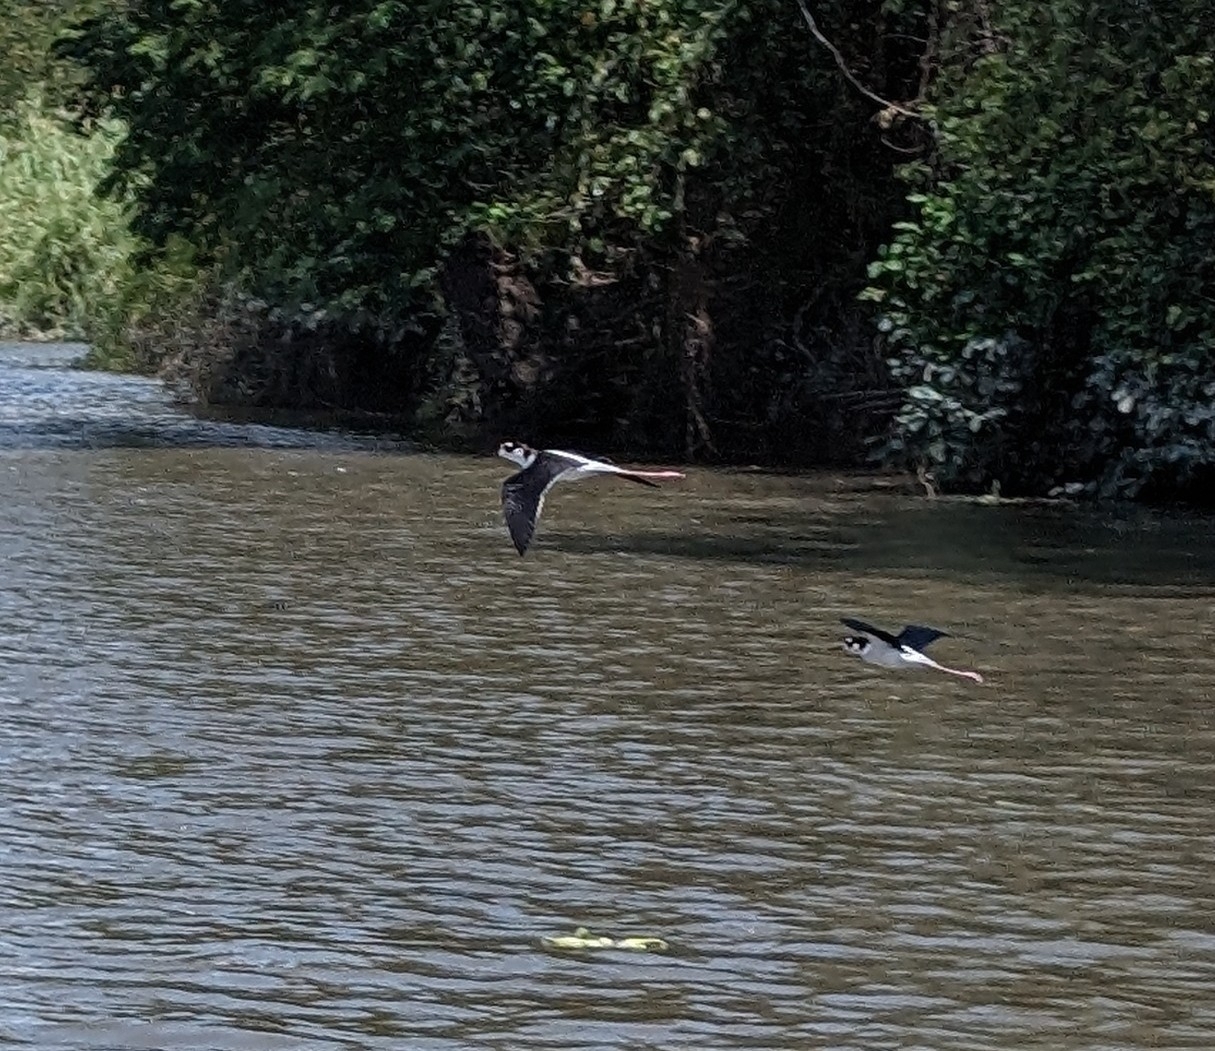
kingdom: Animalia
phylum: Chordata
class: Aves
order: Charadriiformes
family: Recurvirostridae
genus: Himantopus
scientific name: Himantopus mexicanus
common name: Black-necked stilt
